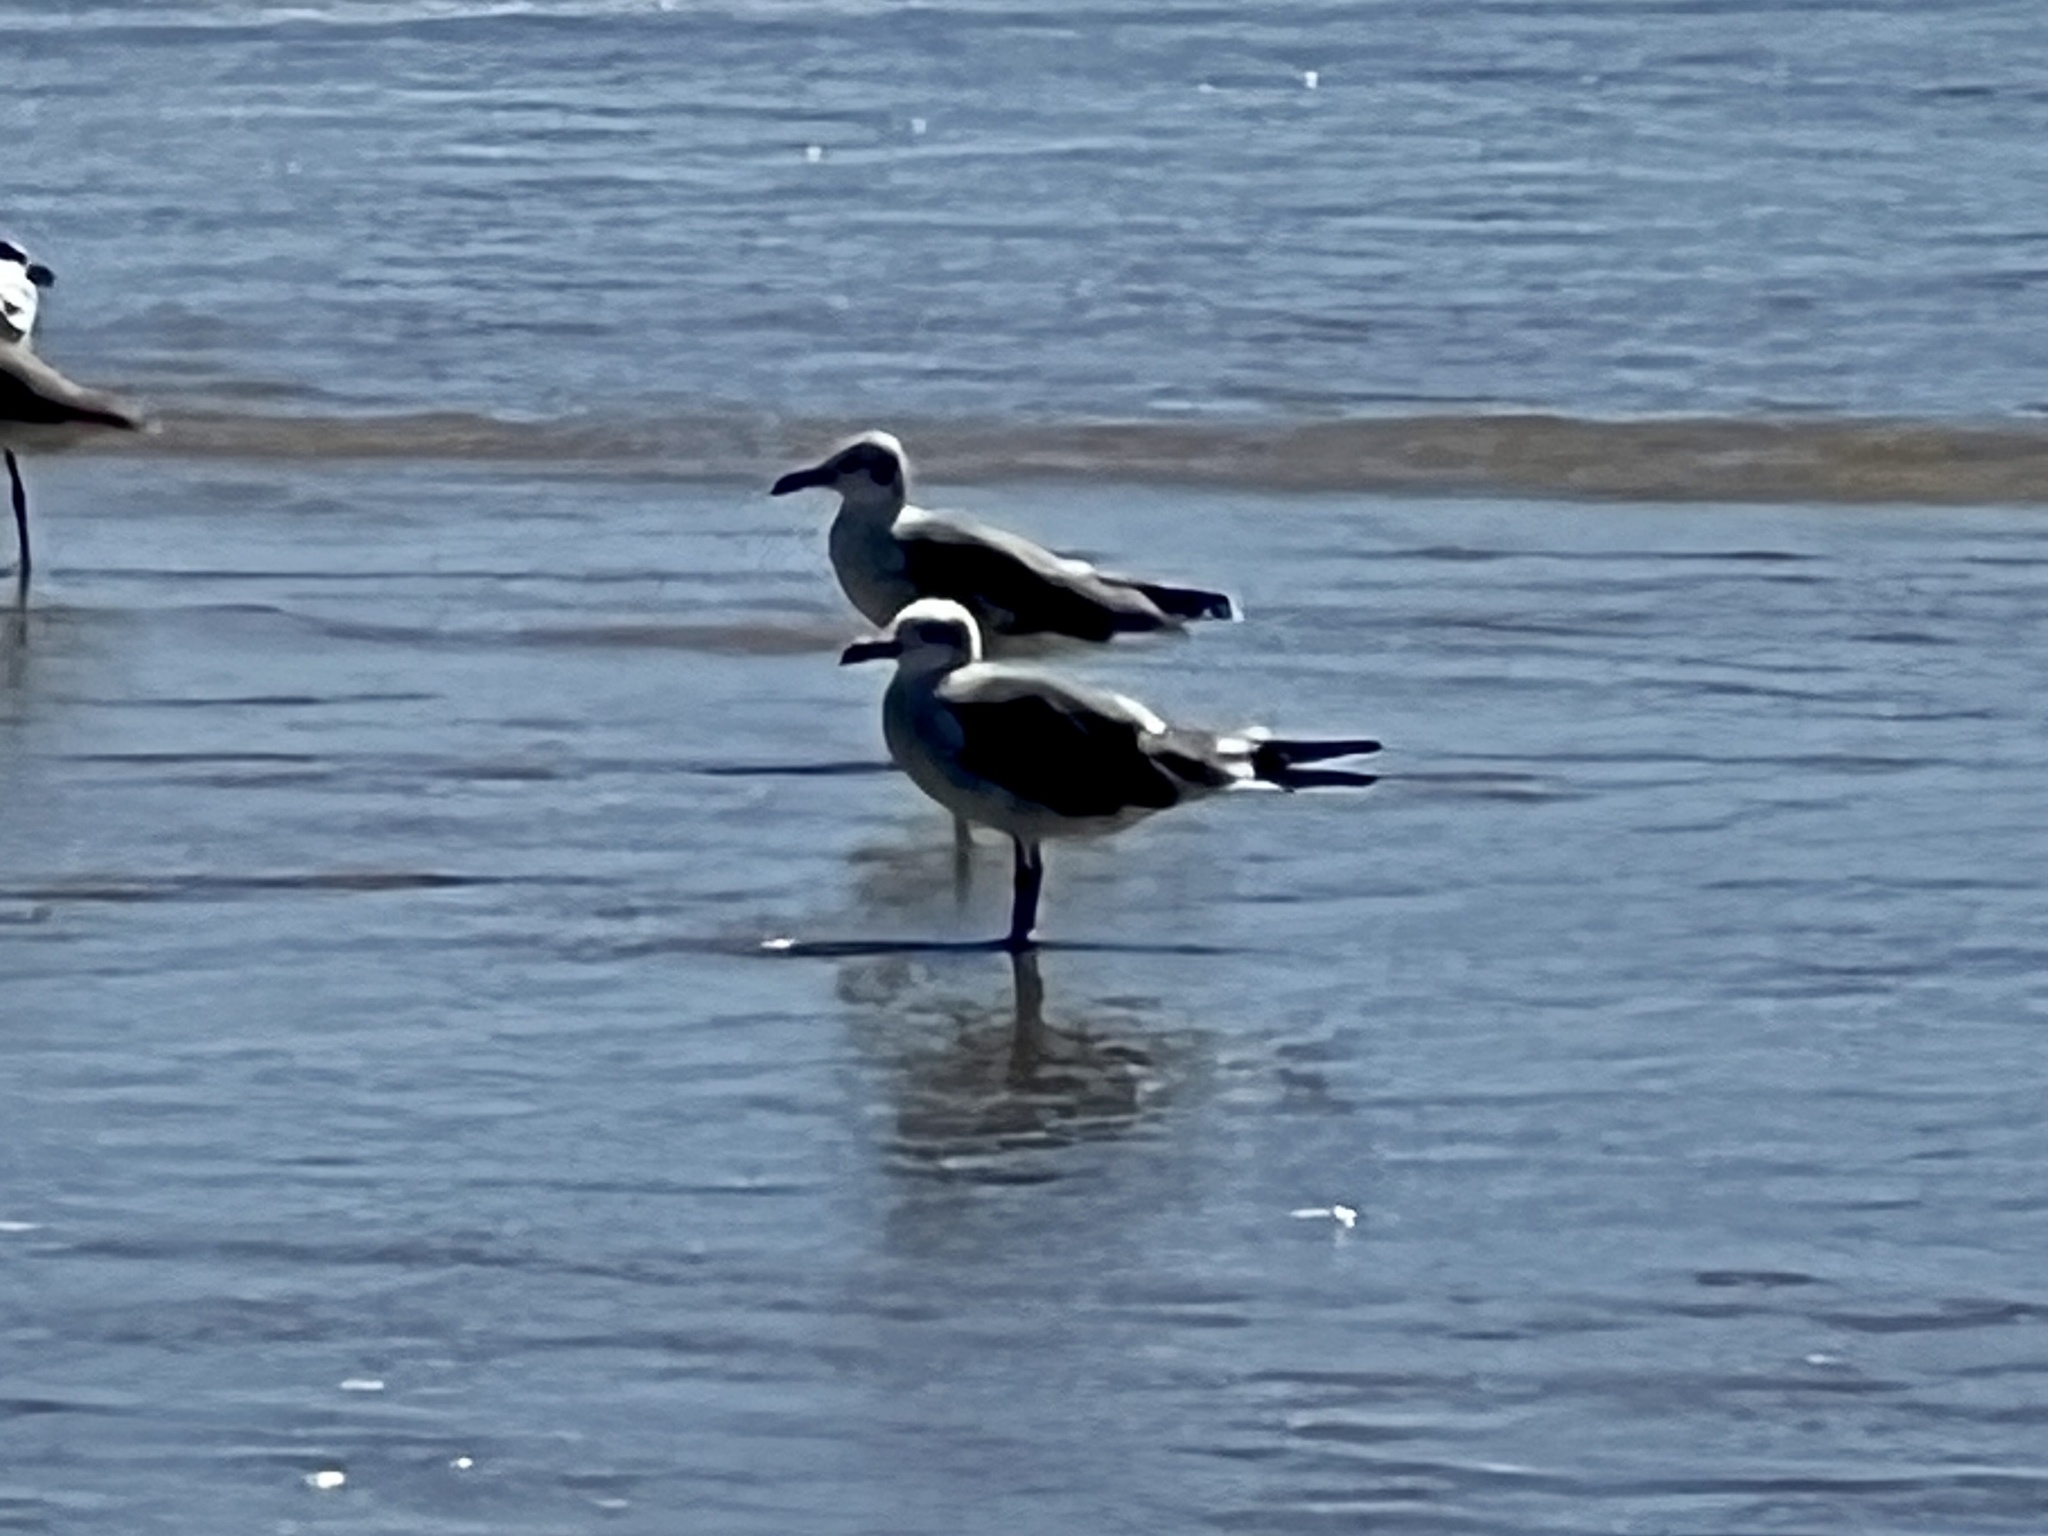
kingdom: Animalia
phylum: Chordata
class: Aves
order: Charadriiformes
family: Laridae
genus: Leucophaeus
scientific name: Leucophaeus atricilla
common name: Laughing gull
